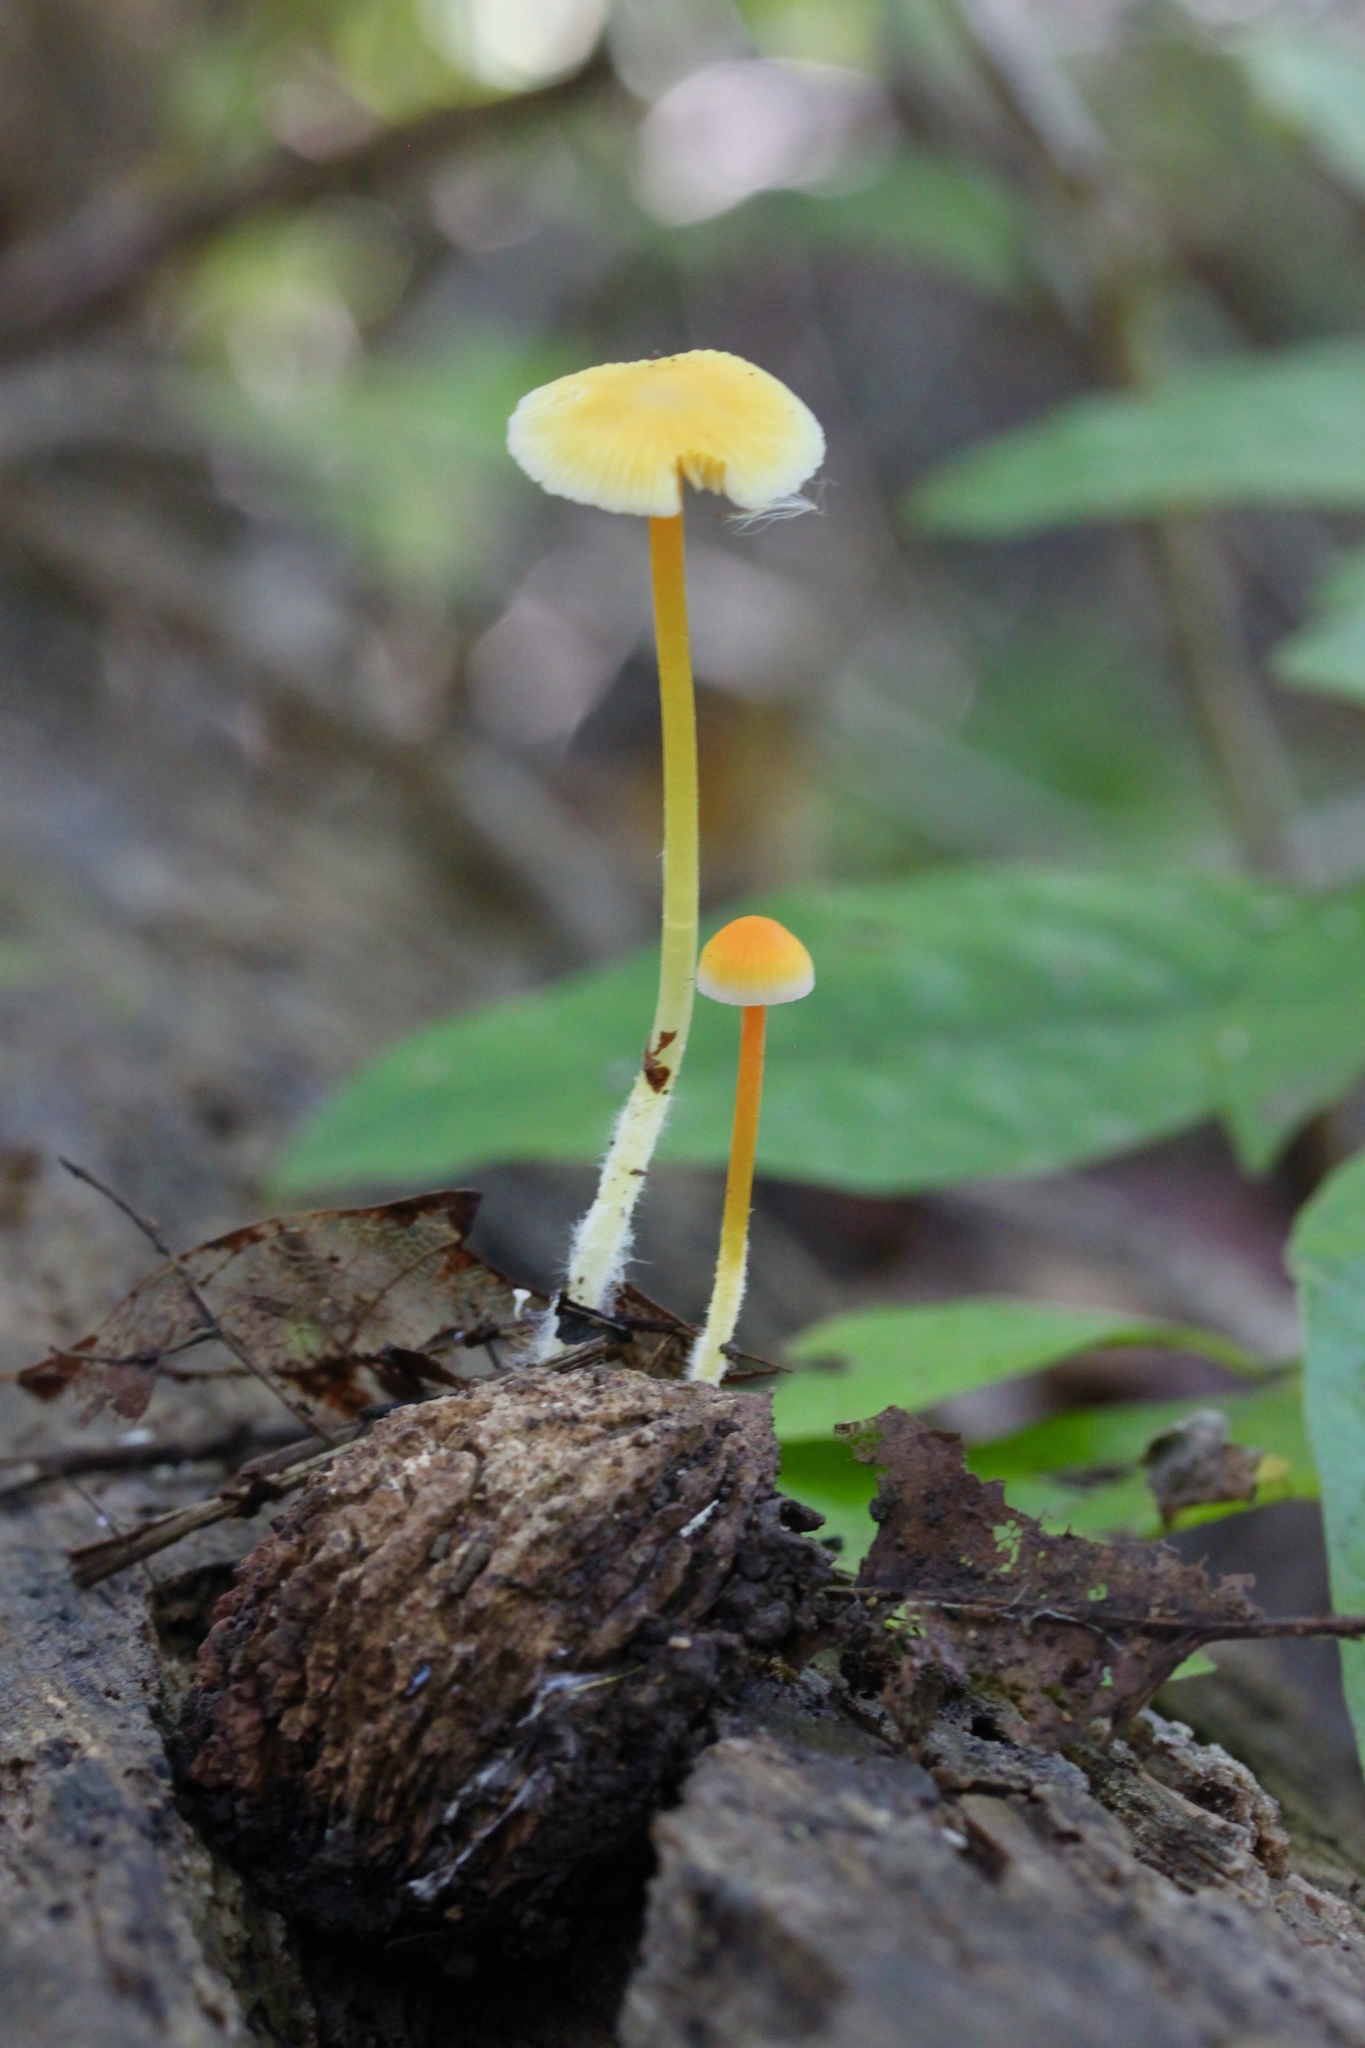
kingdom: Fungi
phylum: Basidiomycota
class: Agaricomycetes
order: Agaricales
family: Mycenaceae
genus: Mycena
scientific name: Mycena crocea
